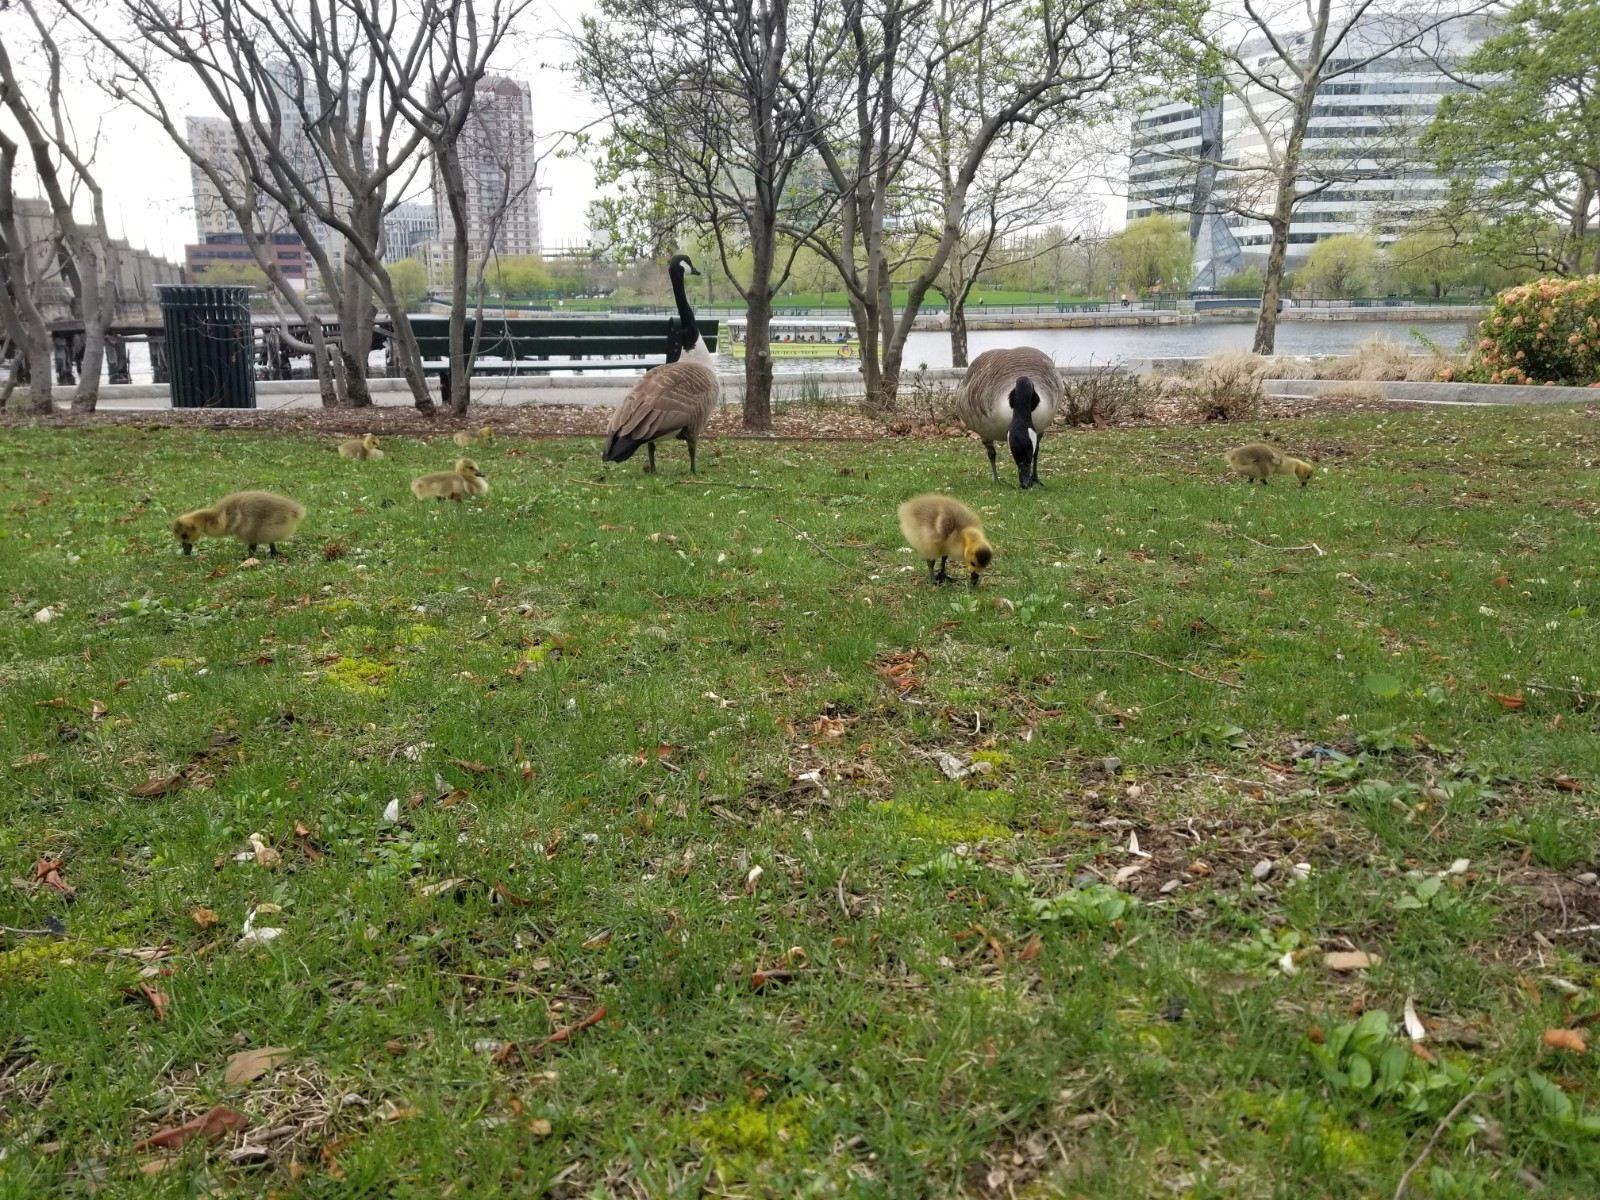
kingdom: Animalia
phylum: Chordata
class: Aves
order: Anseriformes
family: Anatidae
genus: Branta
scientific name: Branta canadensis
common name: Canada goose
